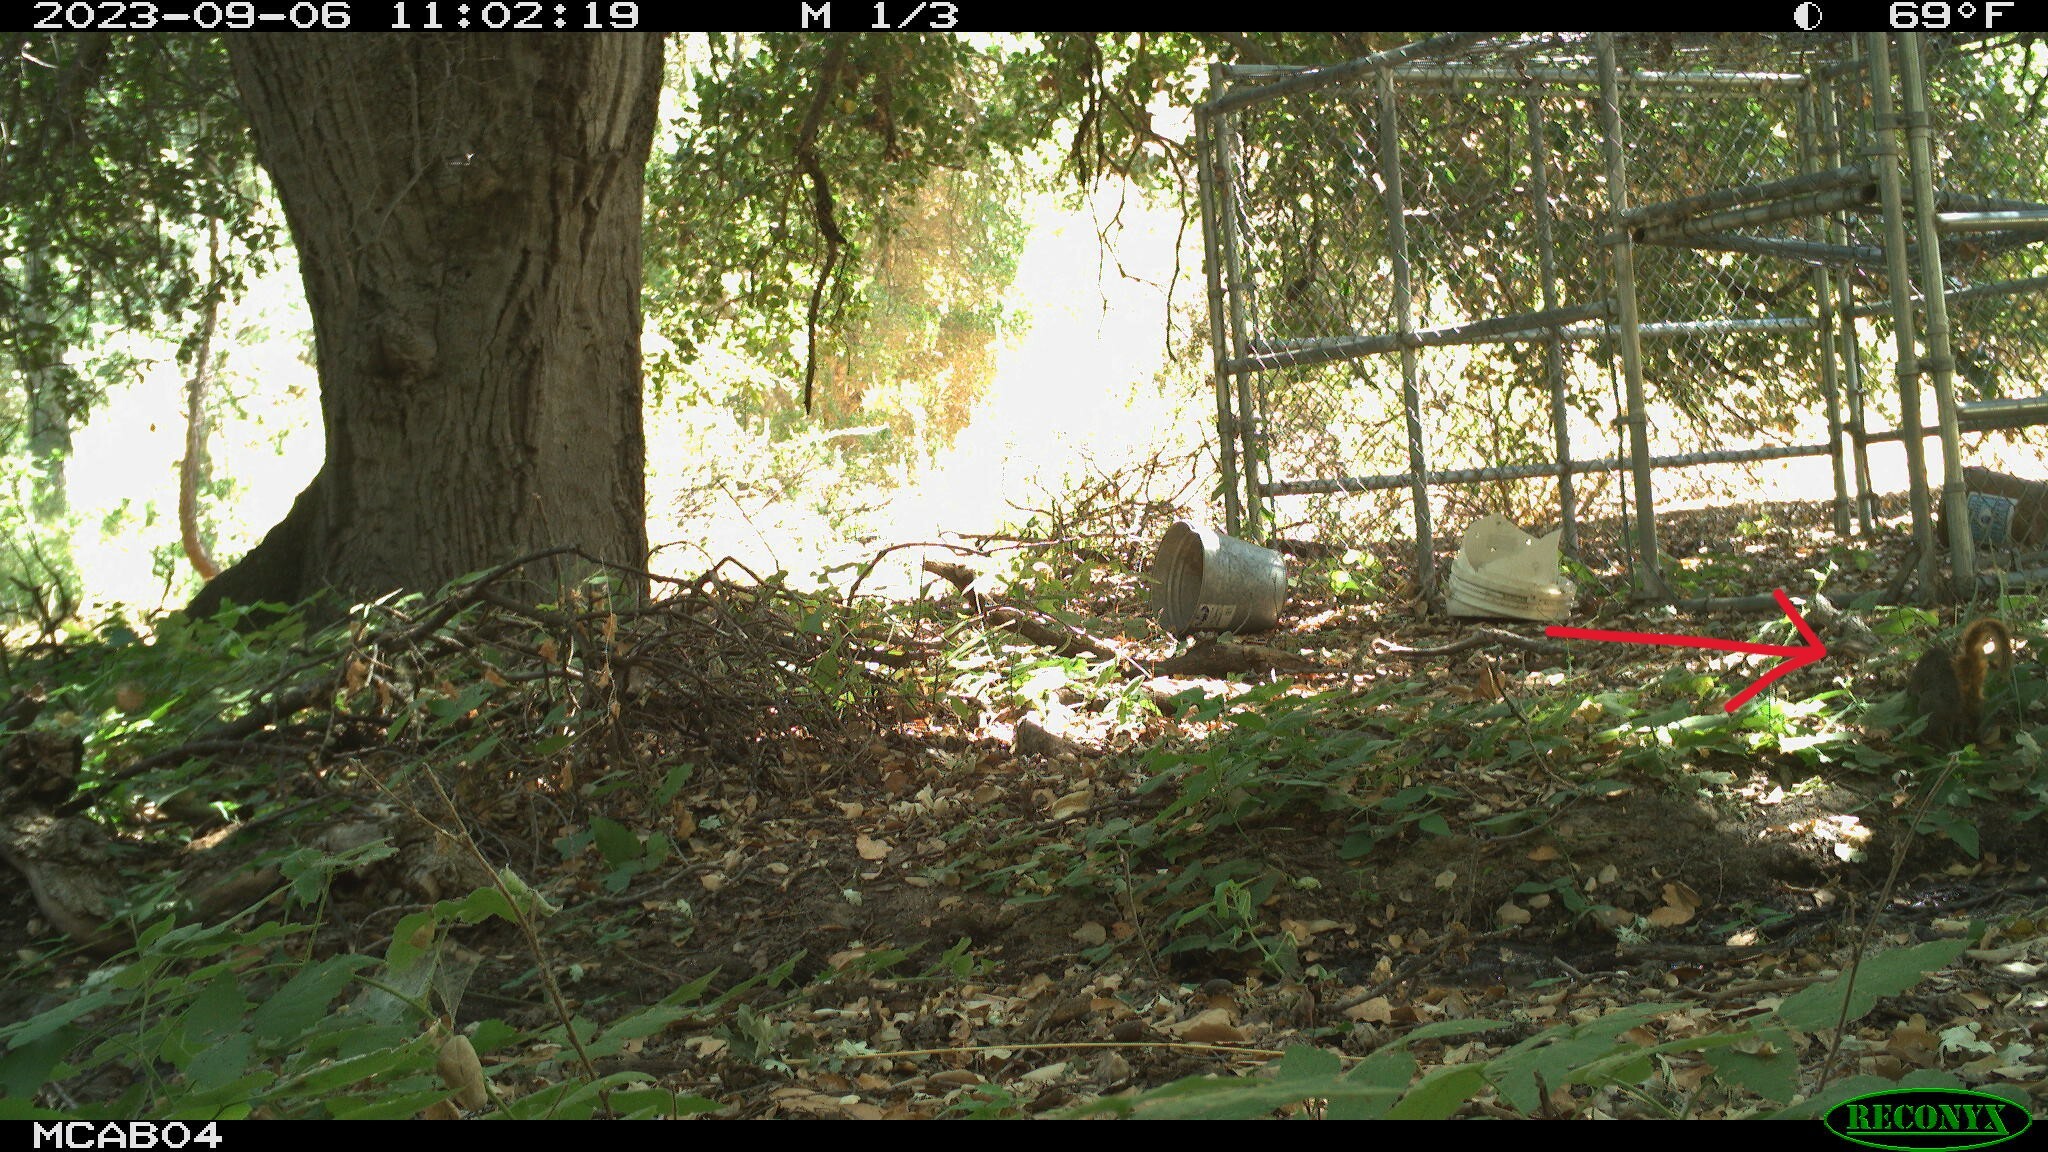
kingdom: Animalia
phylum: Chordata
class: Mammalia
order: Rodentia
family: Sciuridae
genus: Sciurus
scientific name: Sciurus niger
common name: Fox squirrel
